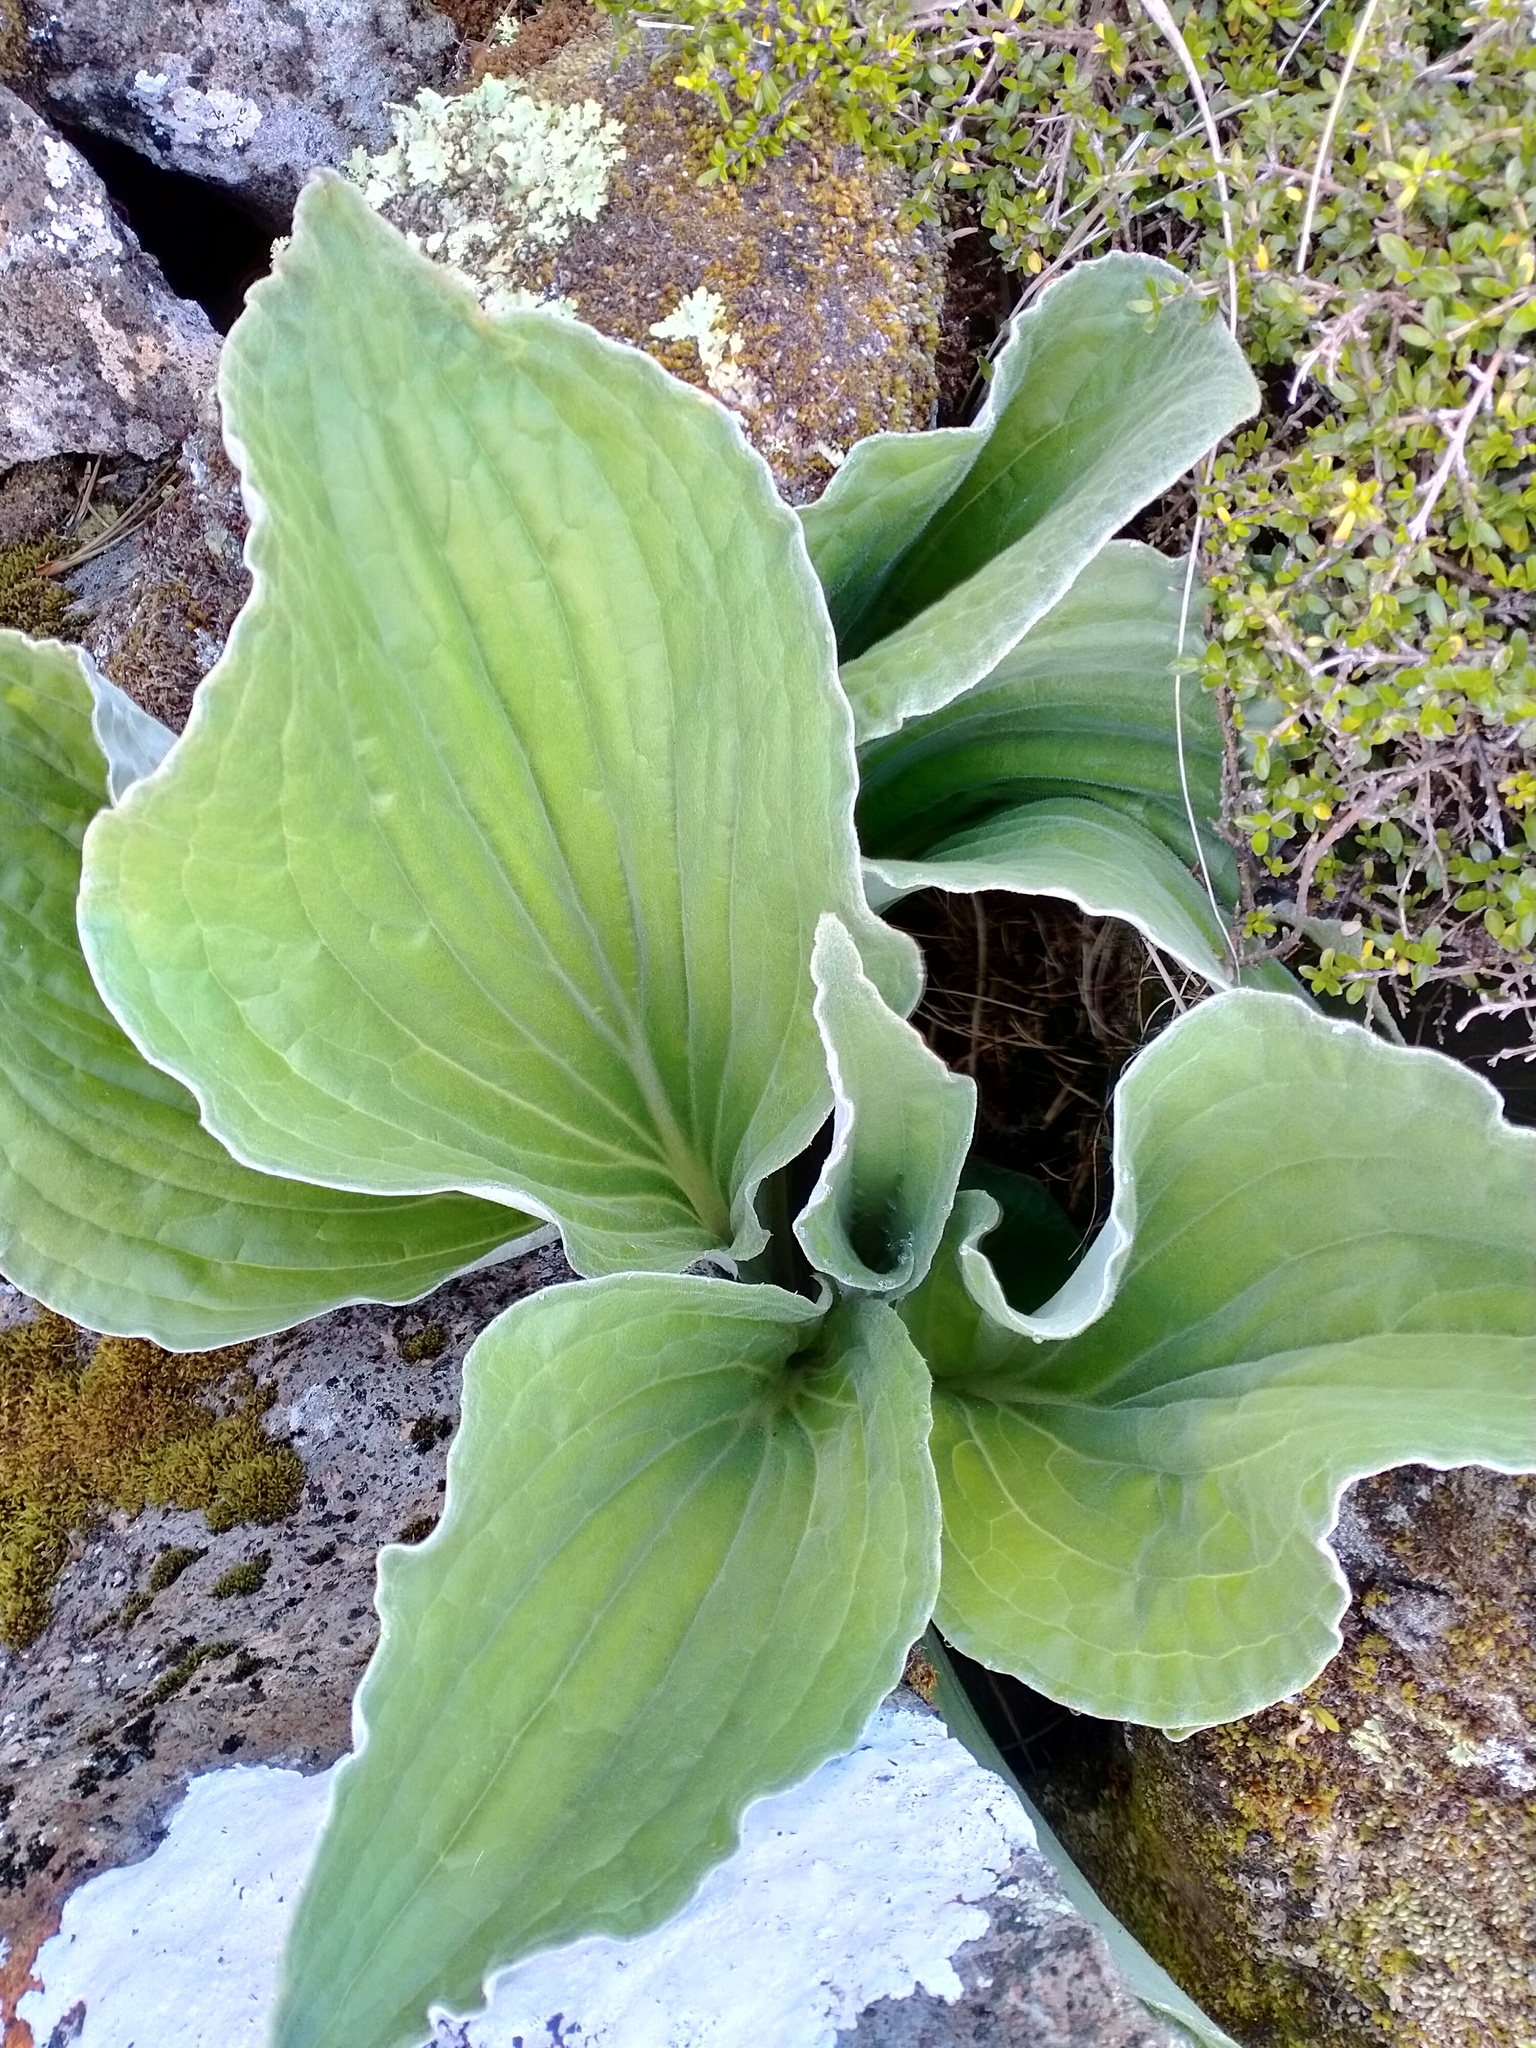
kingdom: Plantae
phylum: Tracheophyta
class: Magnoliopsida
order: Asterales
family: Asteraceae
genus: Pleurophyllum
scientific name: Pleurophyllum criniferum
